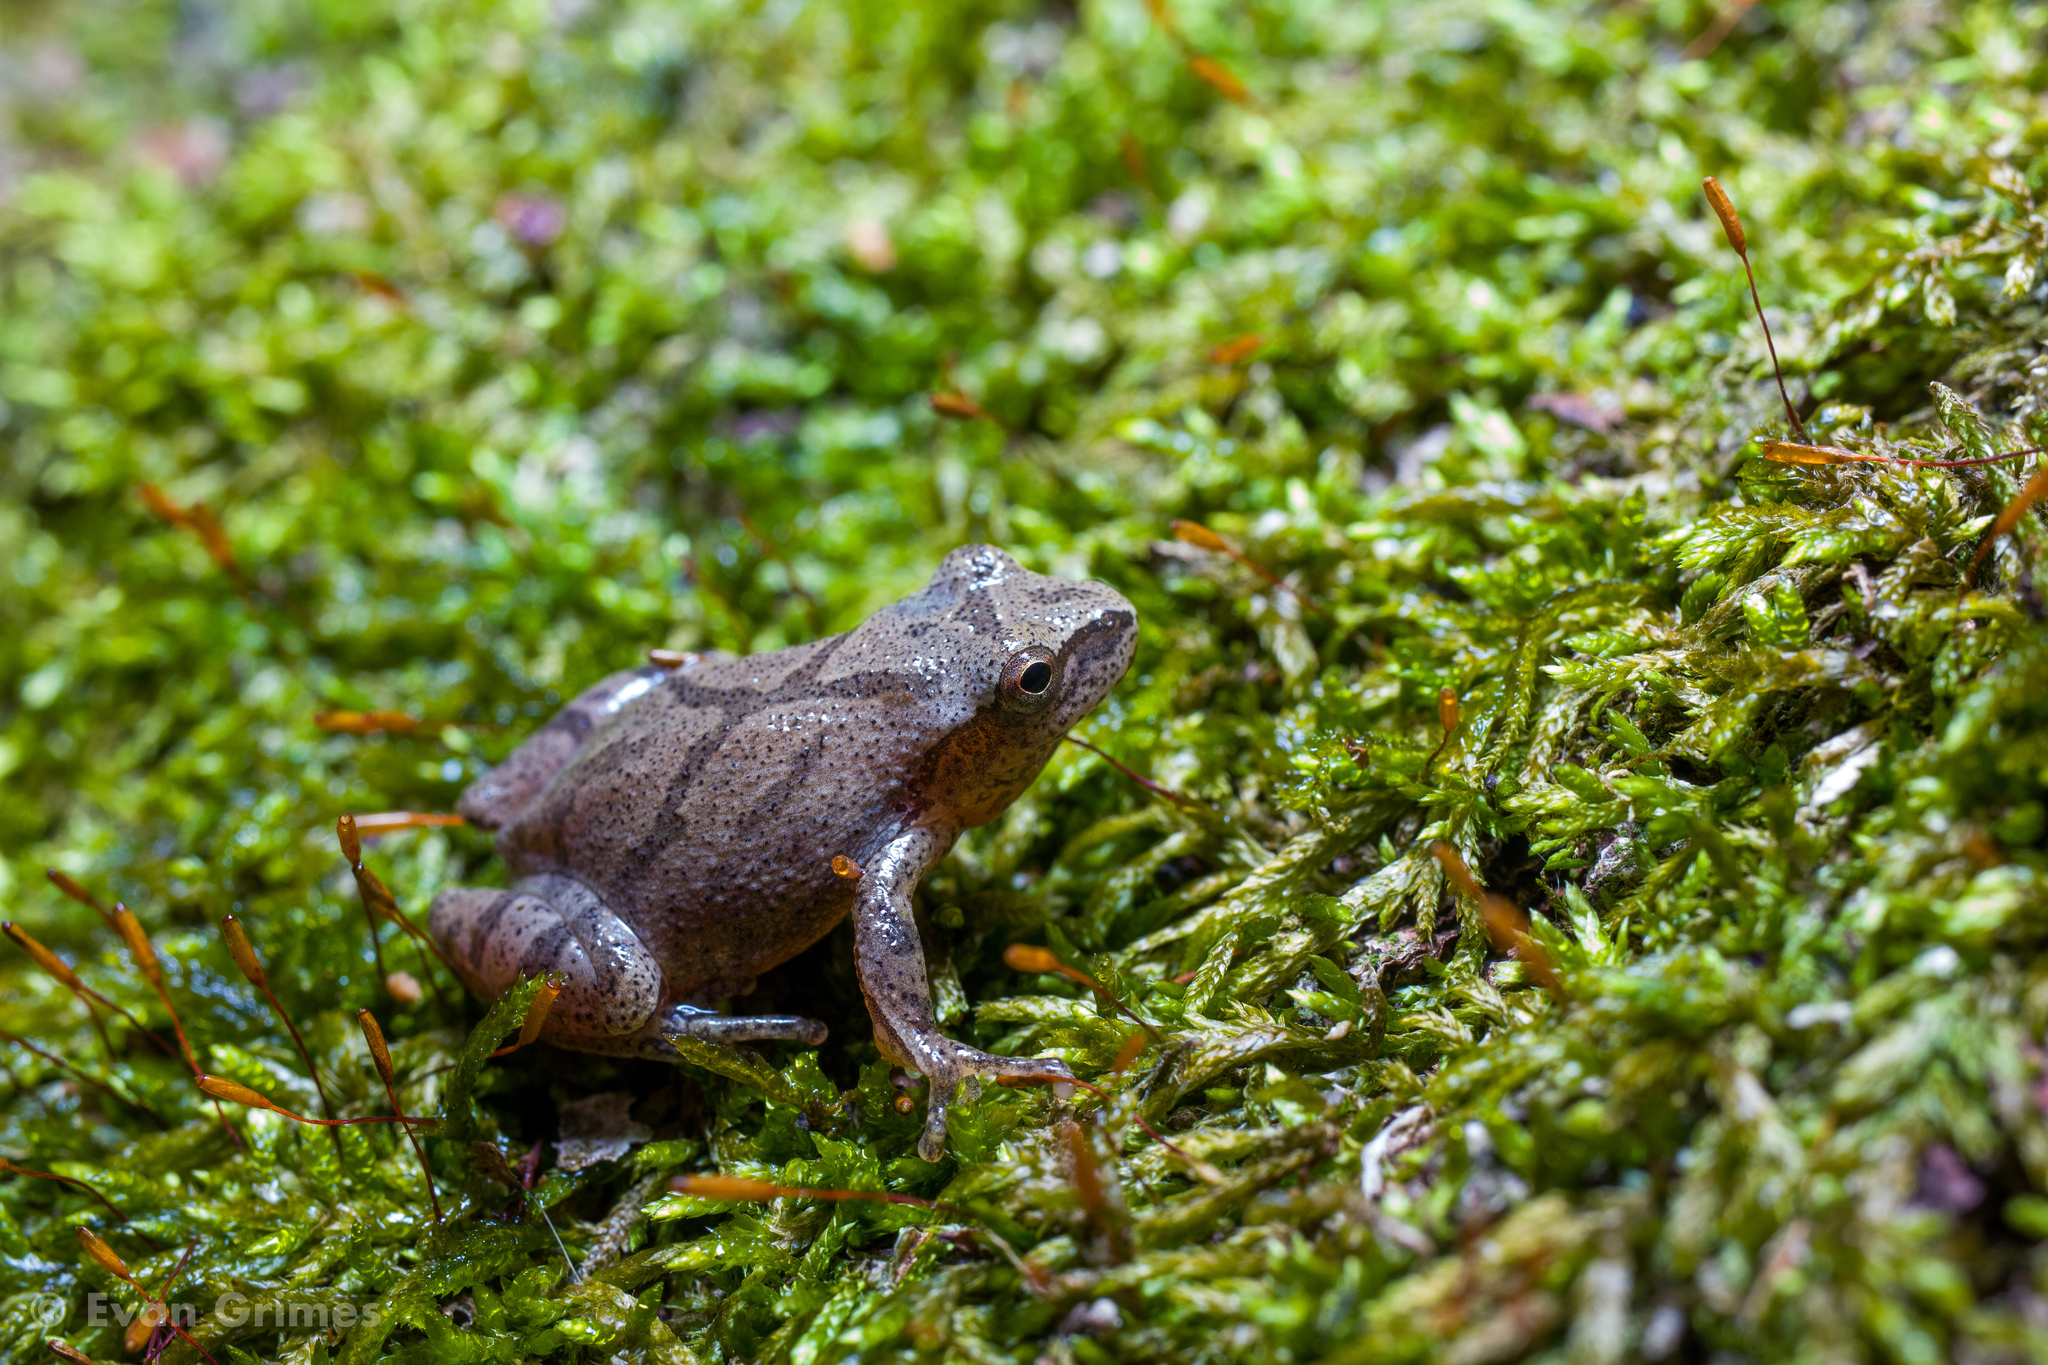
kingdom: Animalia
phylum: Chordata
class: Amphibia
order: Anura
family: Hylidae
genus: Pseudacris
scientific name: Pseudacris crucifer
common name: Spring peeper
